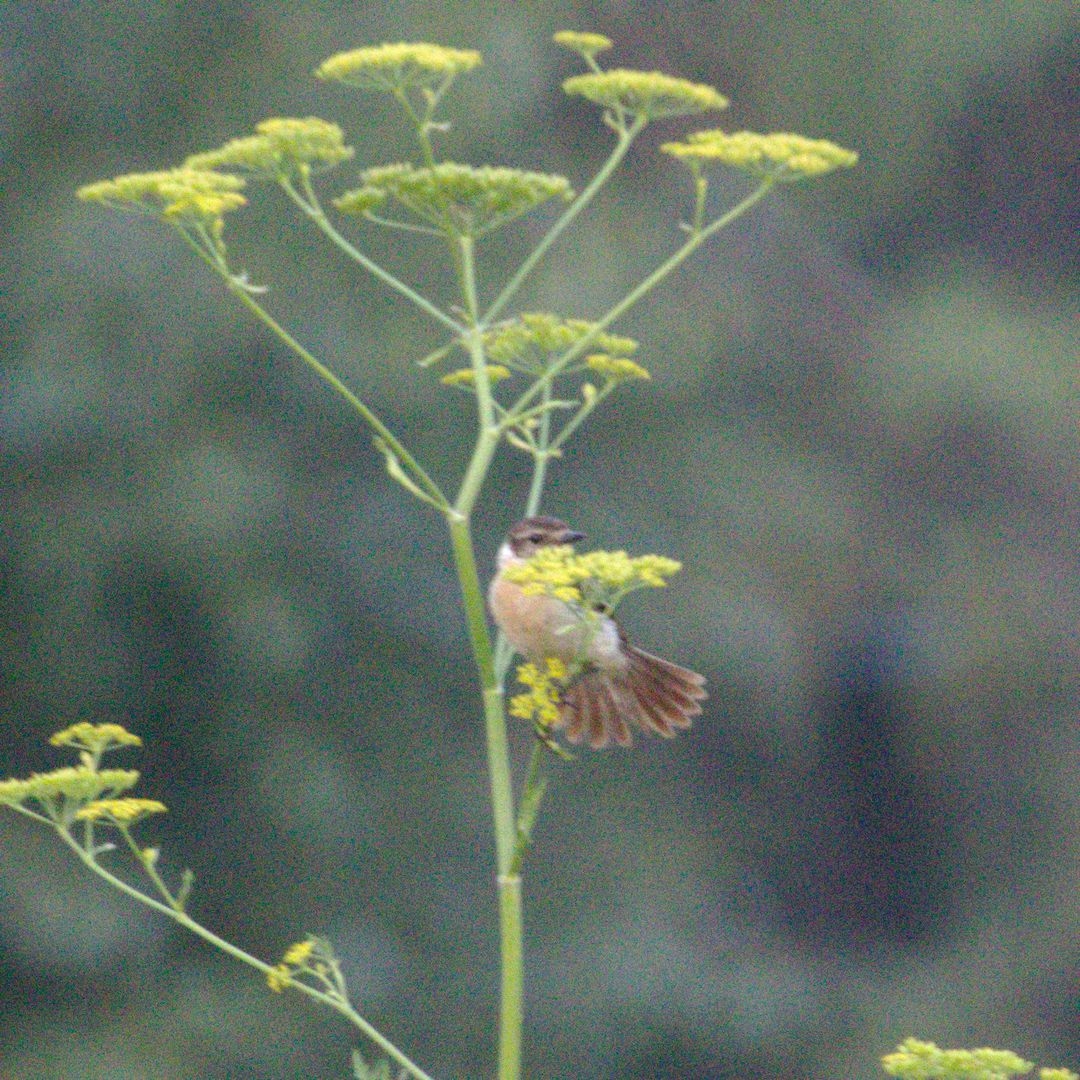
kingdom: Animalia
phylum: Chordata
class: Aves
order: Passeriformes
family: Muscicapidae
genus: Saxicola
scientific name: Saxicola maurus
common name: Siberian stonechat
